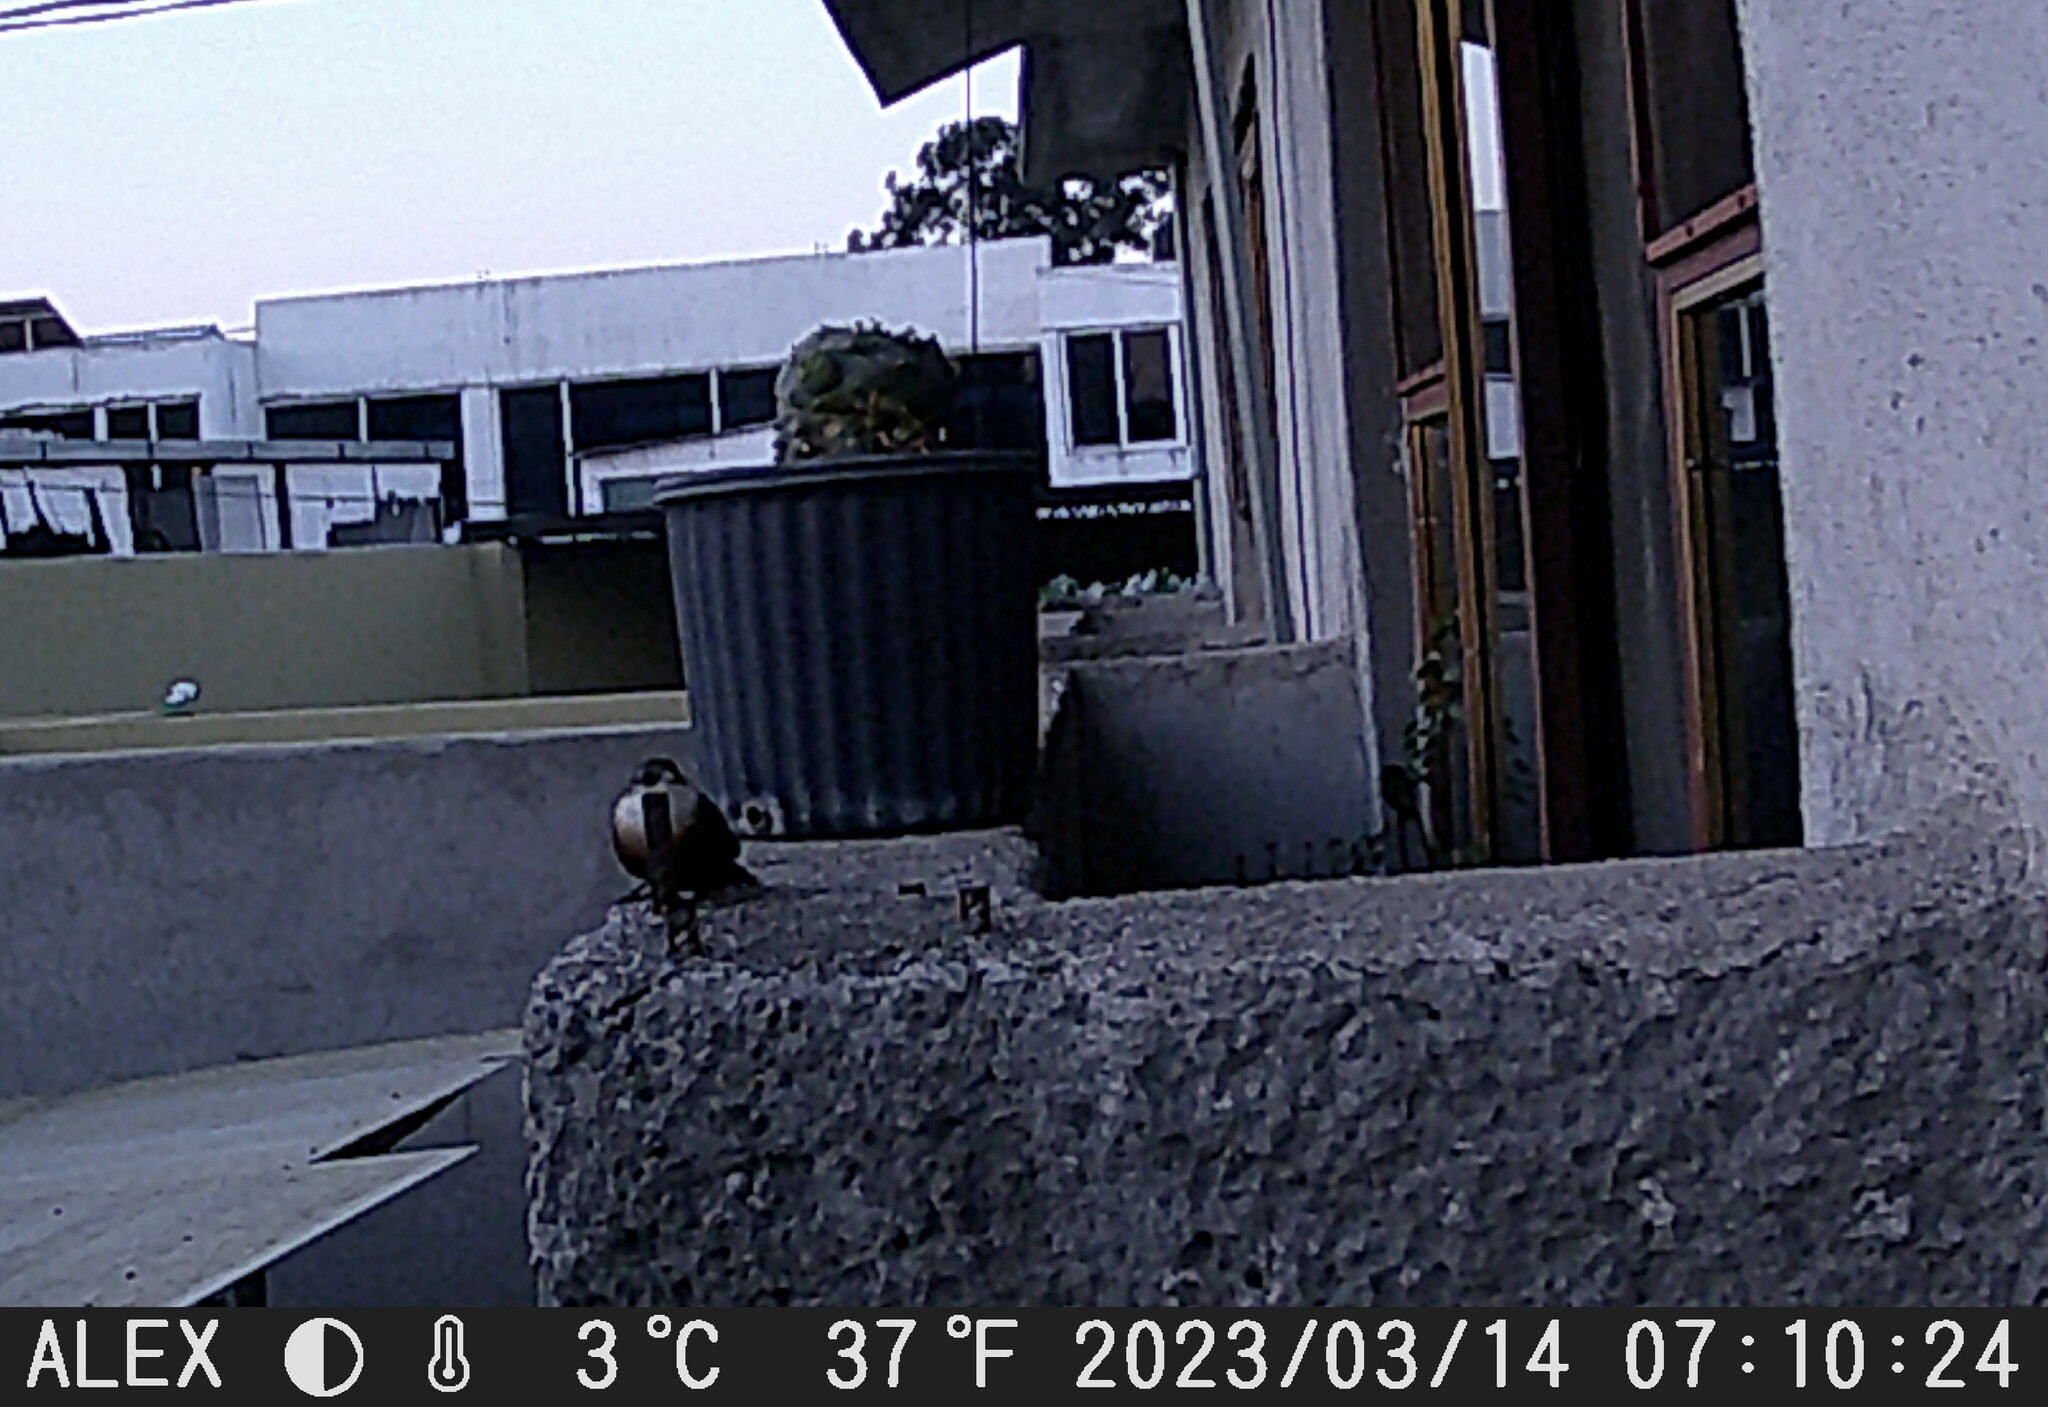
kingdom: Animalia
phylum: Chordata
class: Aves
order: Passeriformes
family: Troglodytidae
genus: Catherpes
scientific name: Catherpes mexicanus
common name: Canyon wren
